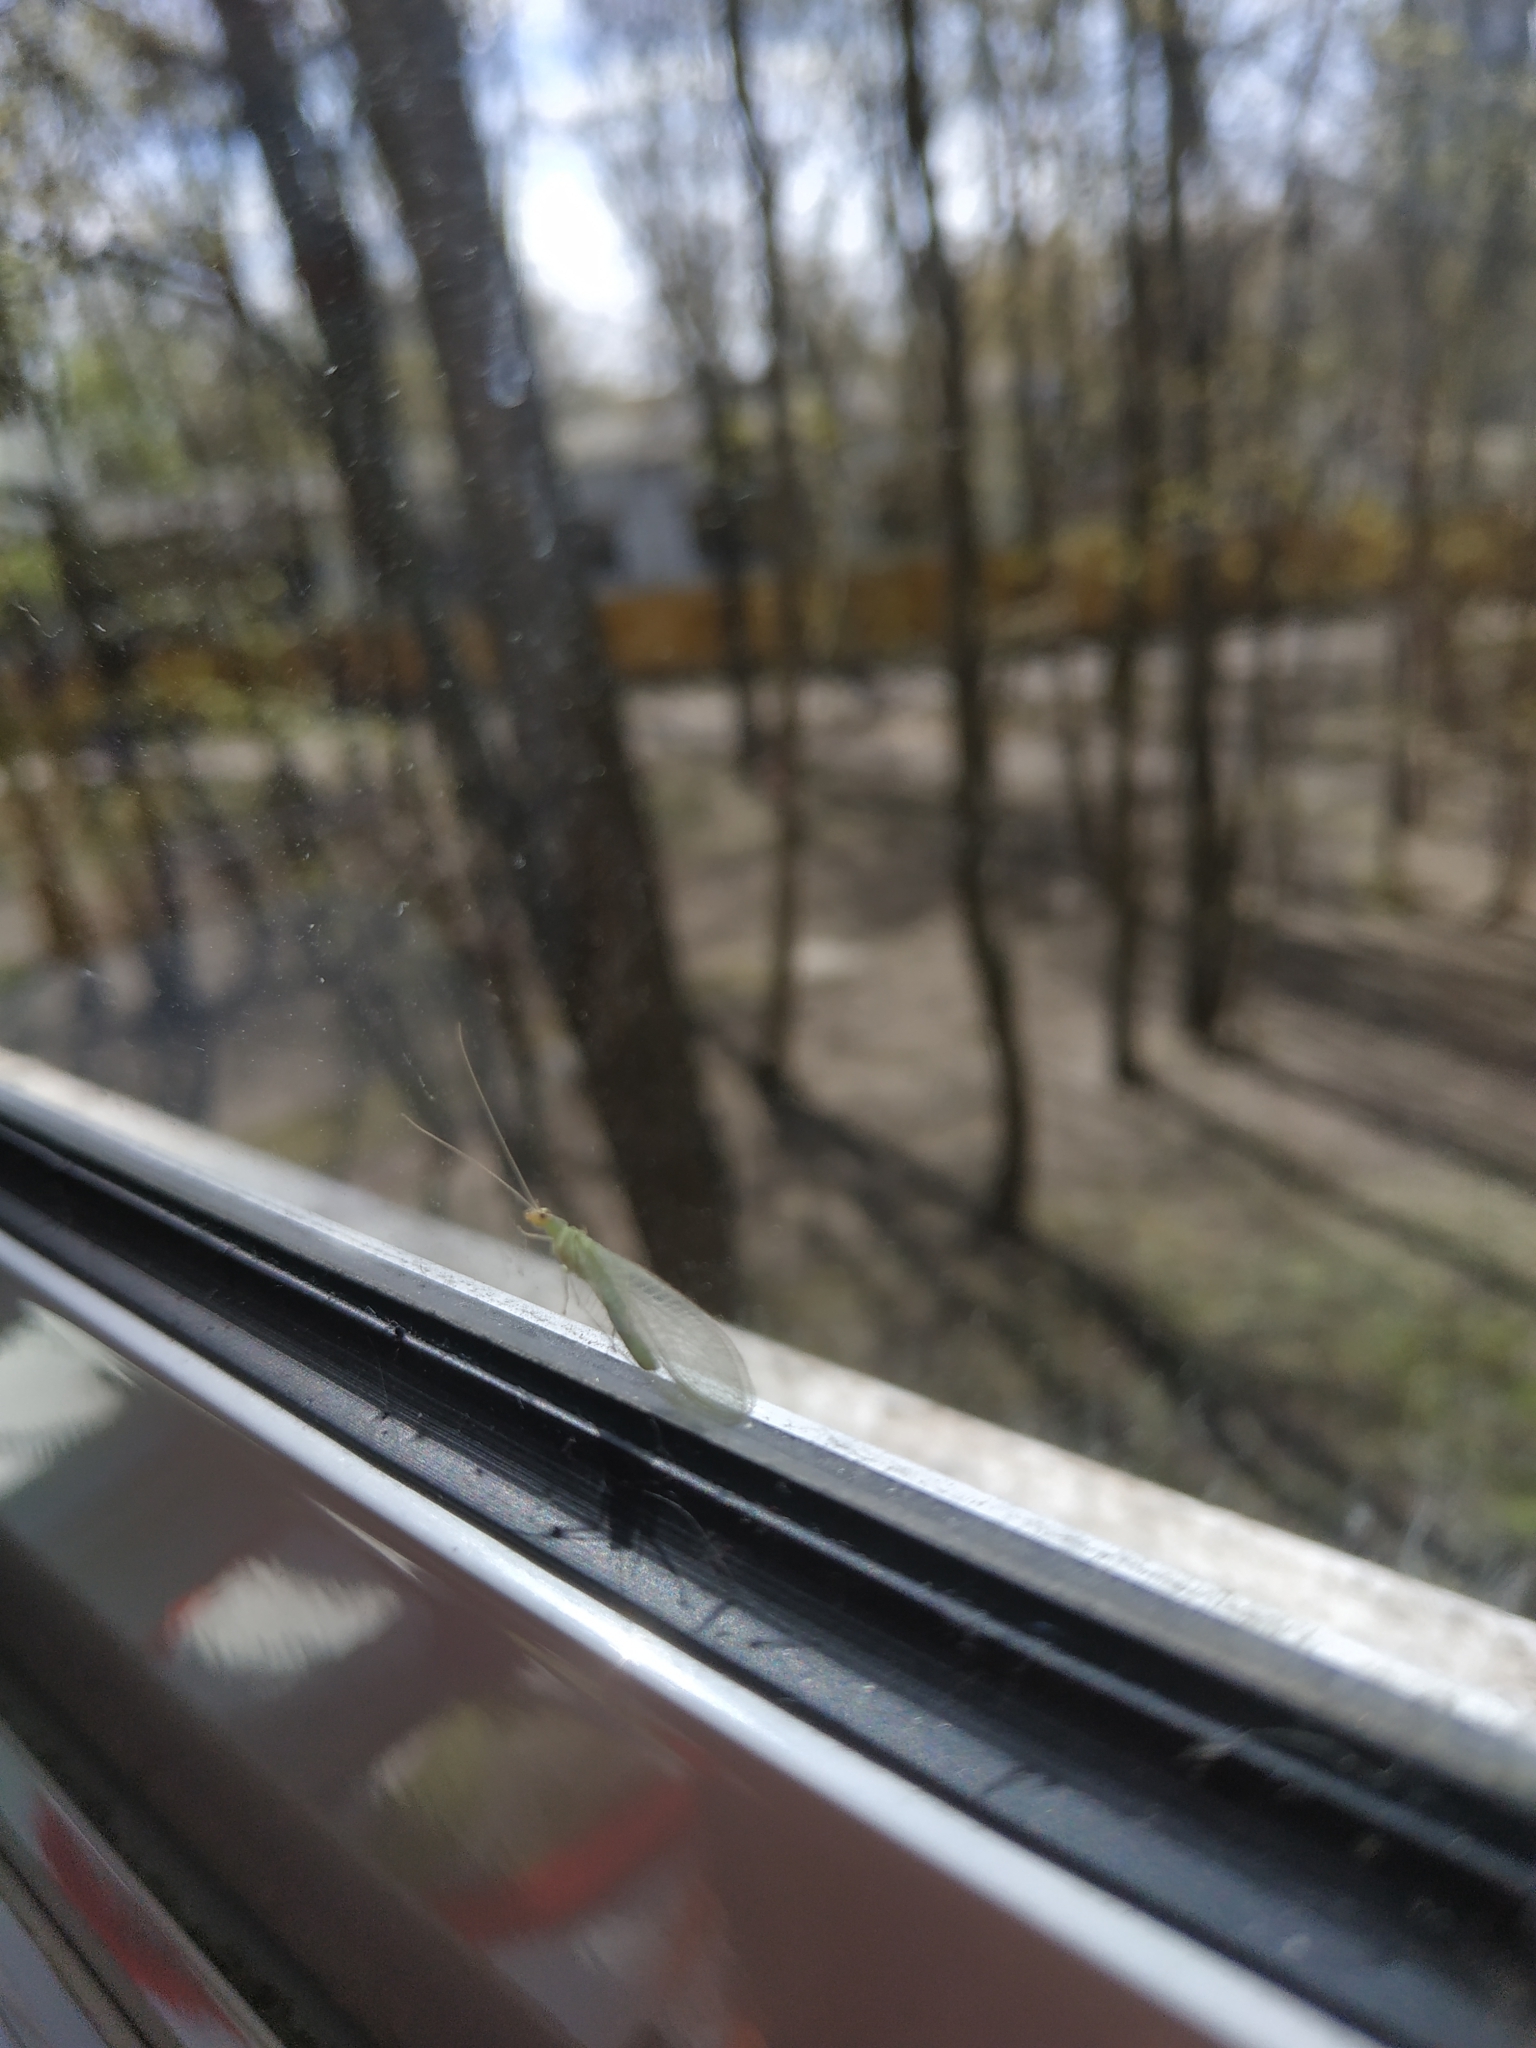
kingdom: Animalia
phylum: Arthropoda
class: Insecta
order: Neuroptera
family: Chrysopidae
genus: Chrysoperla
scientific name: Chrysoperla
